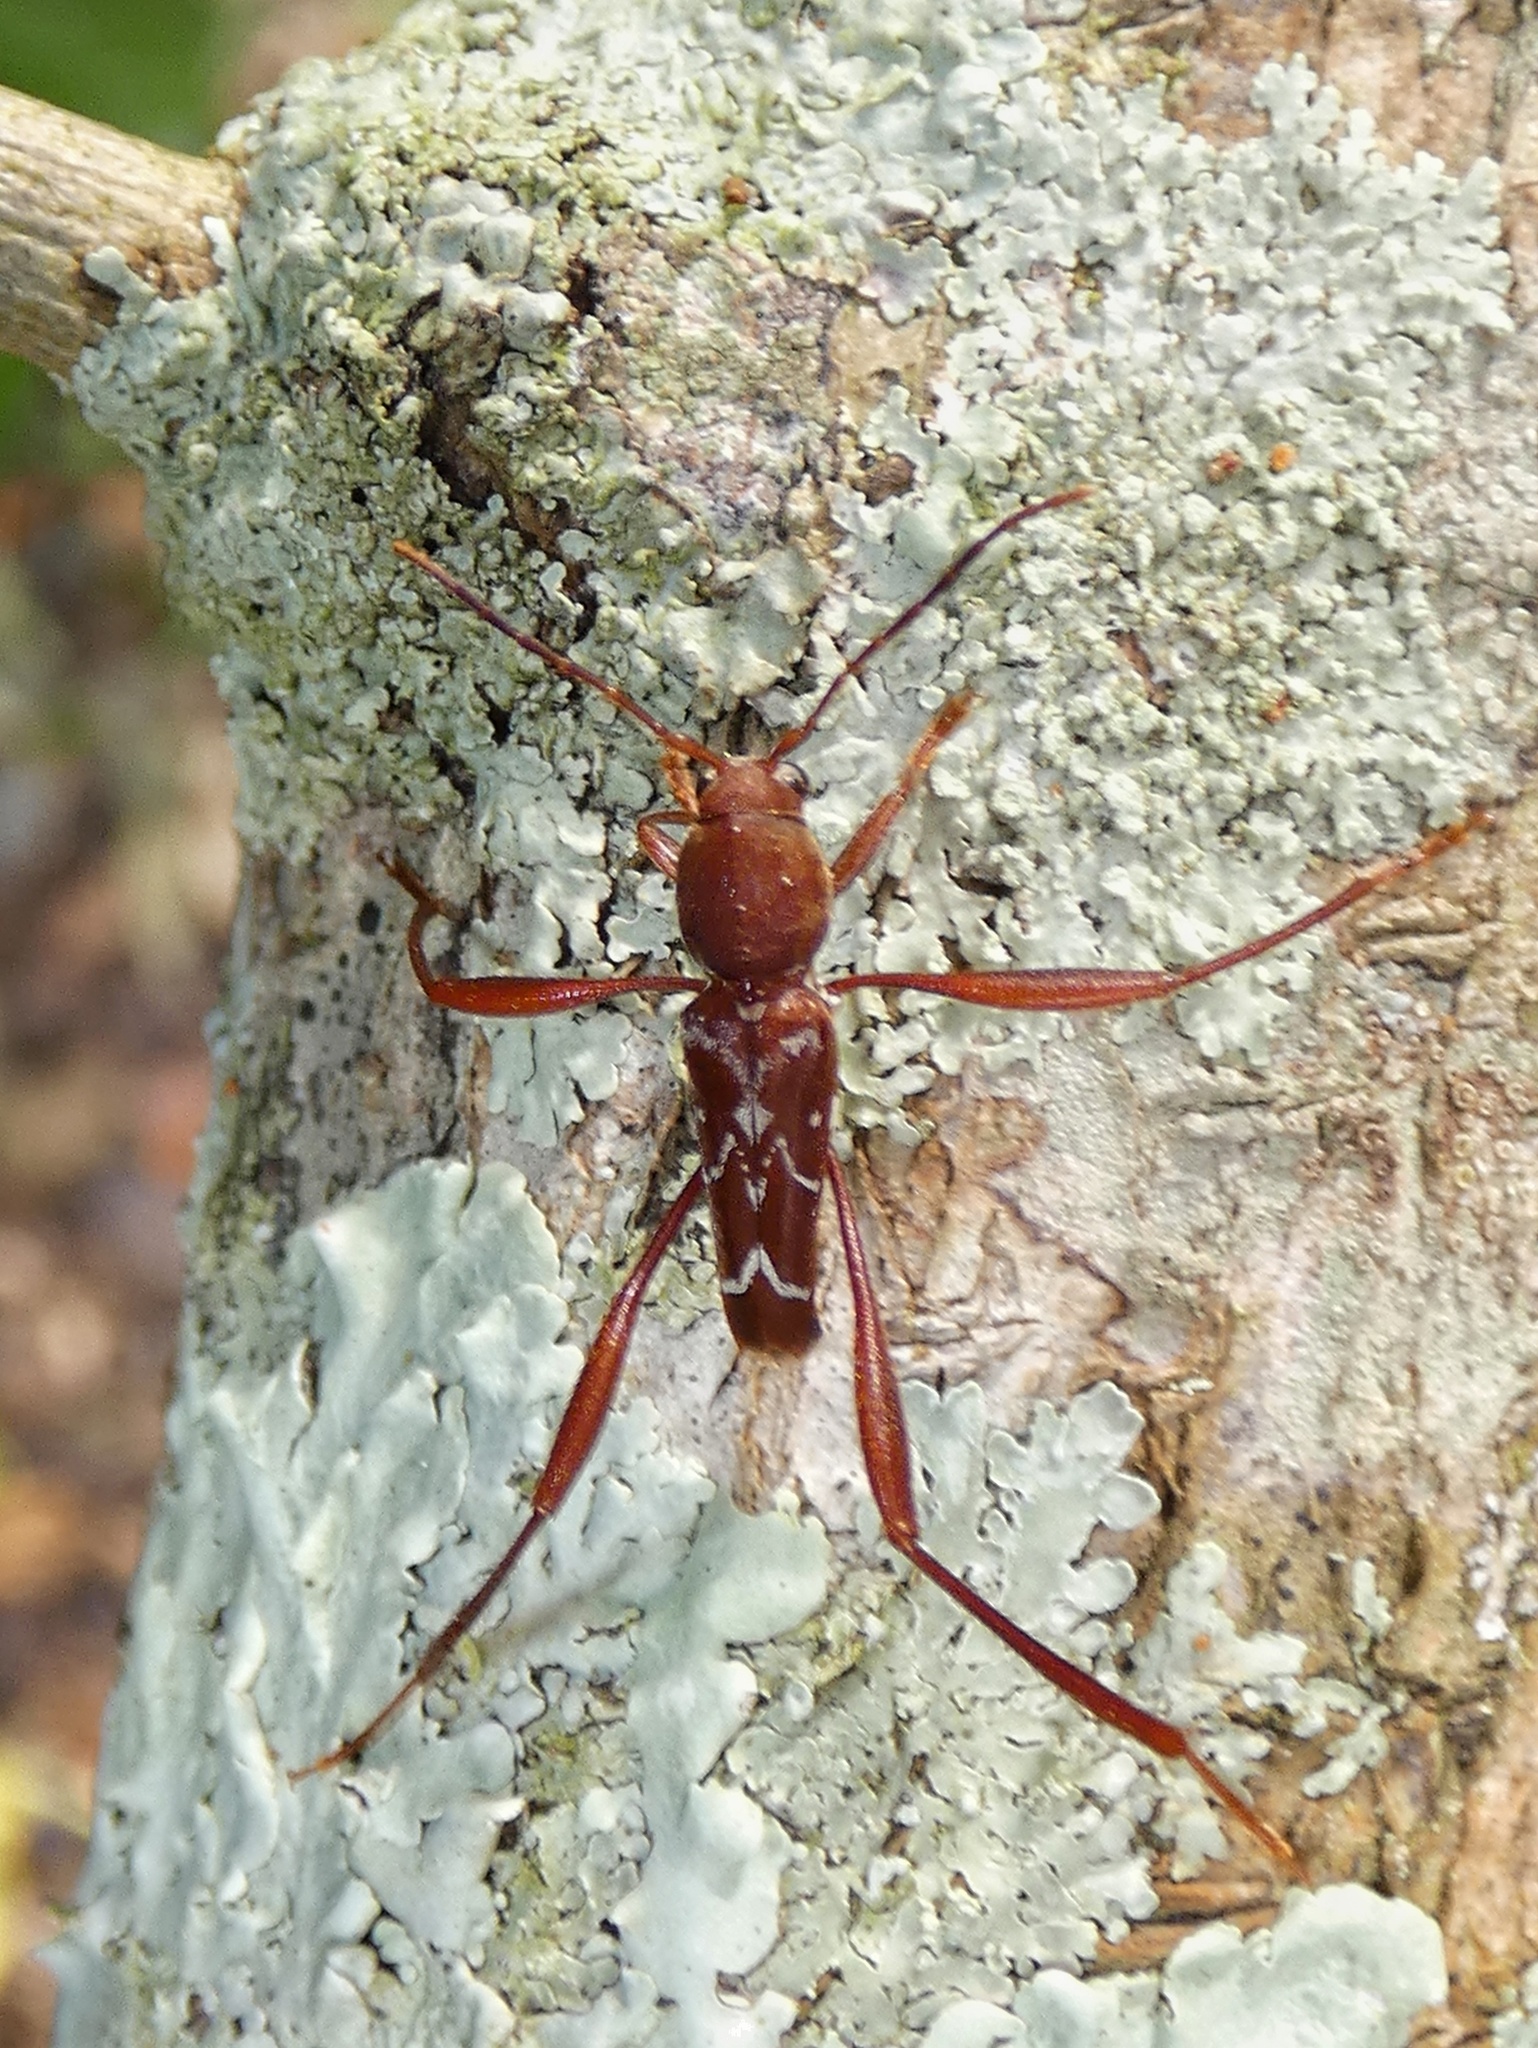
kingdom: Animalia
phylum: Arthropoda
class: Insecta
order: Coleoptera
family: Cerambycidae
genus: Neoclytus
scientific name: Neoclytus cacicus
